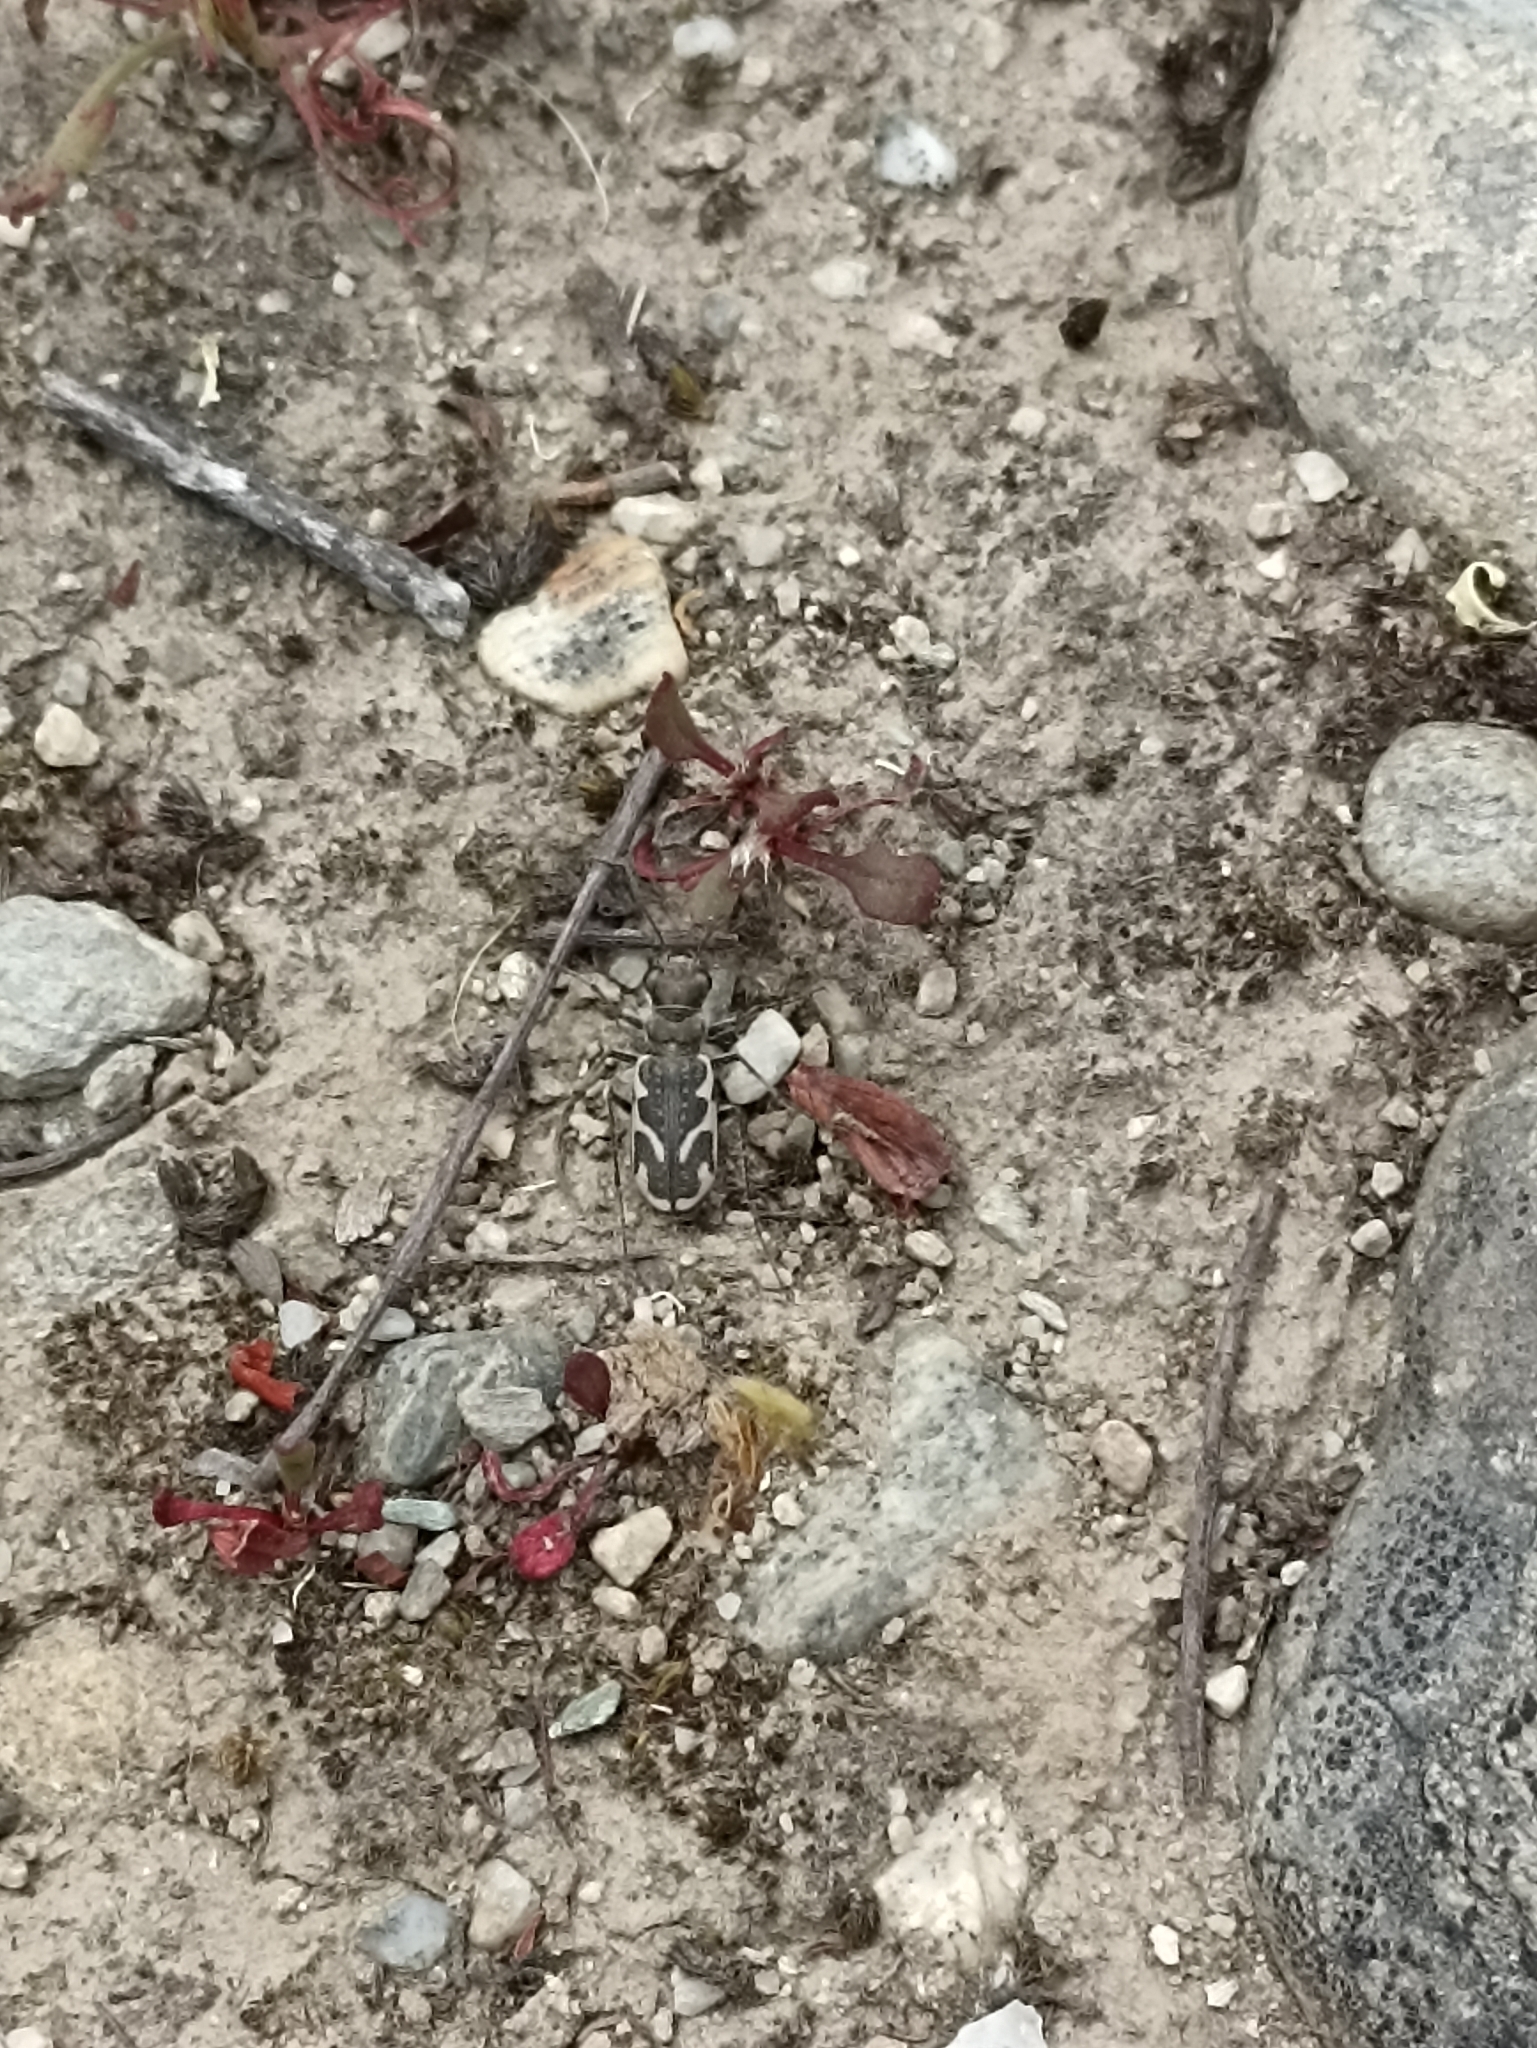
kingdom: Animalia
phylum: Arthropoda
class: Insecta
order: Coleoptera
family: Carabidae
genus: Neocicindela
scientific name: Neocicindela dunedensis
